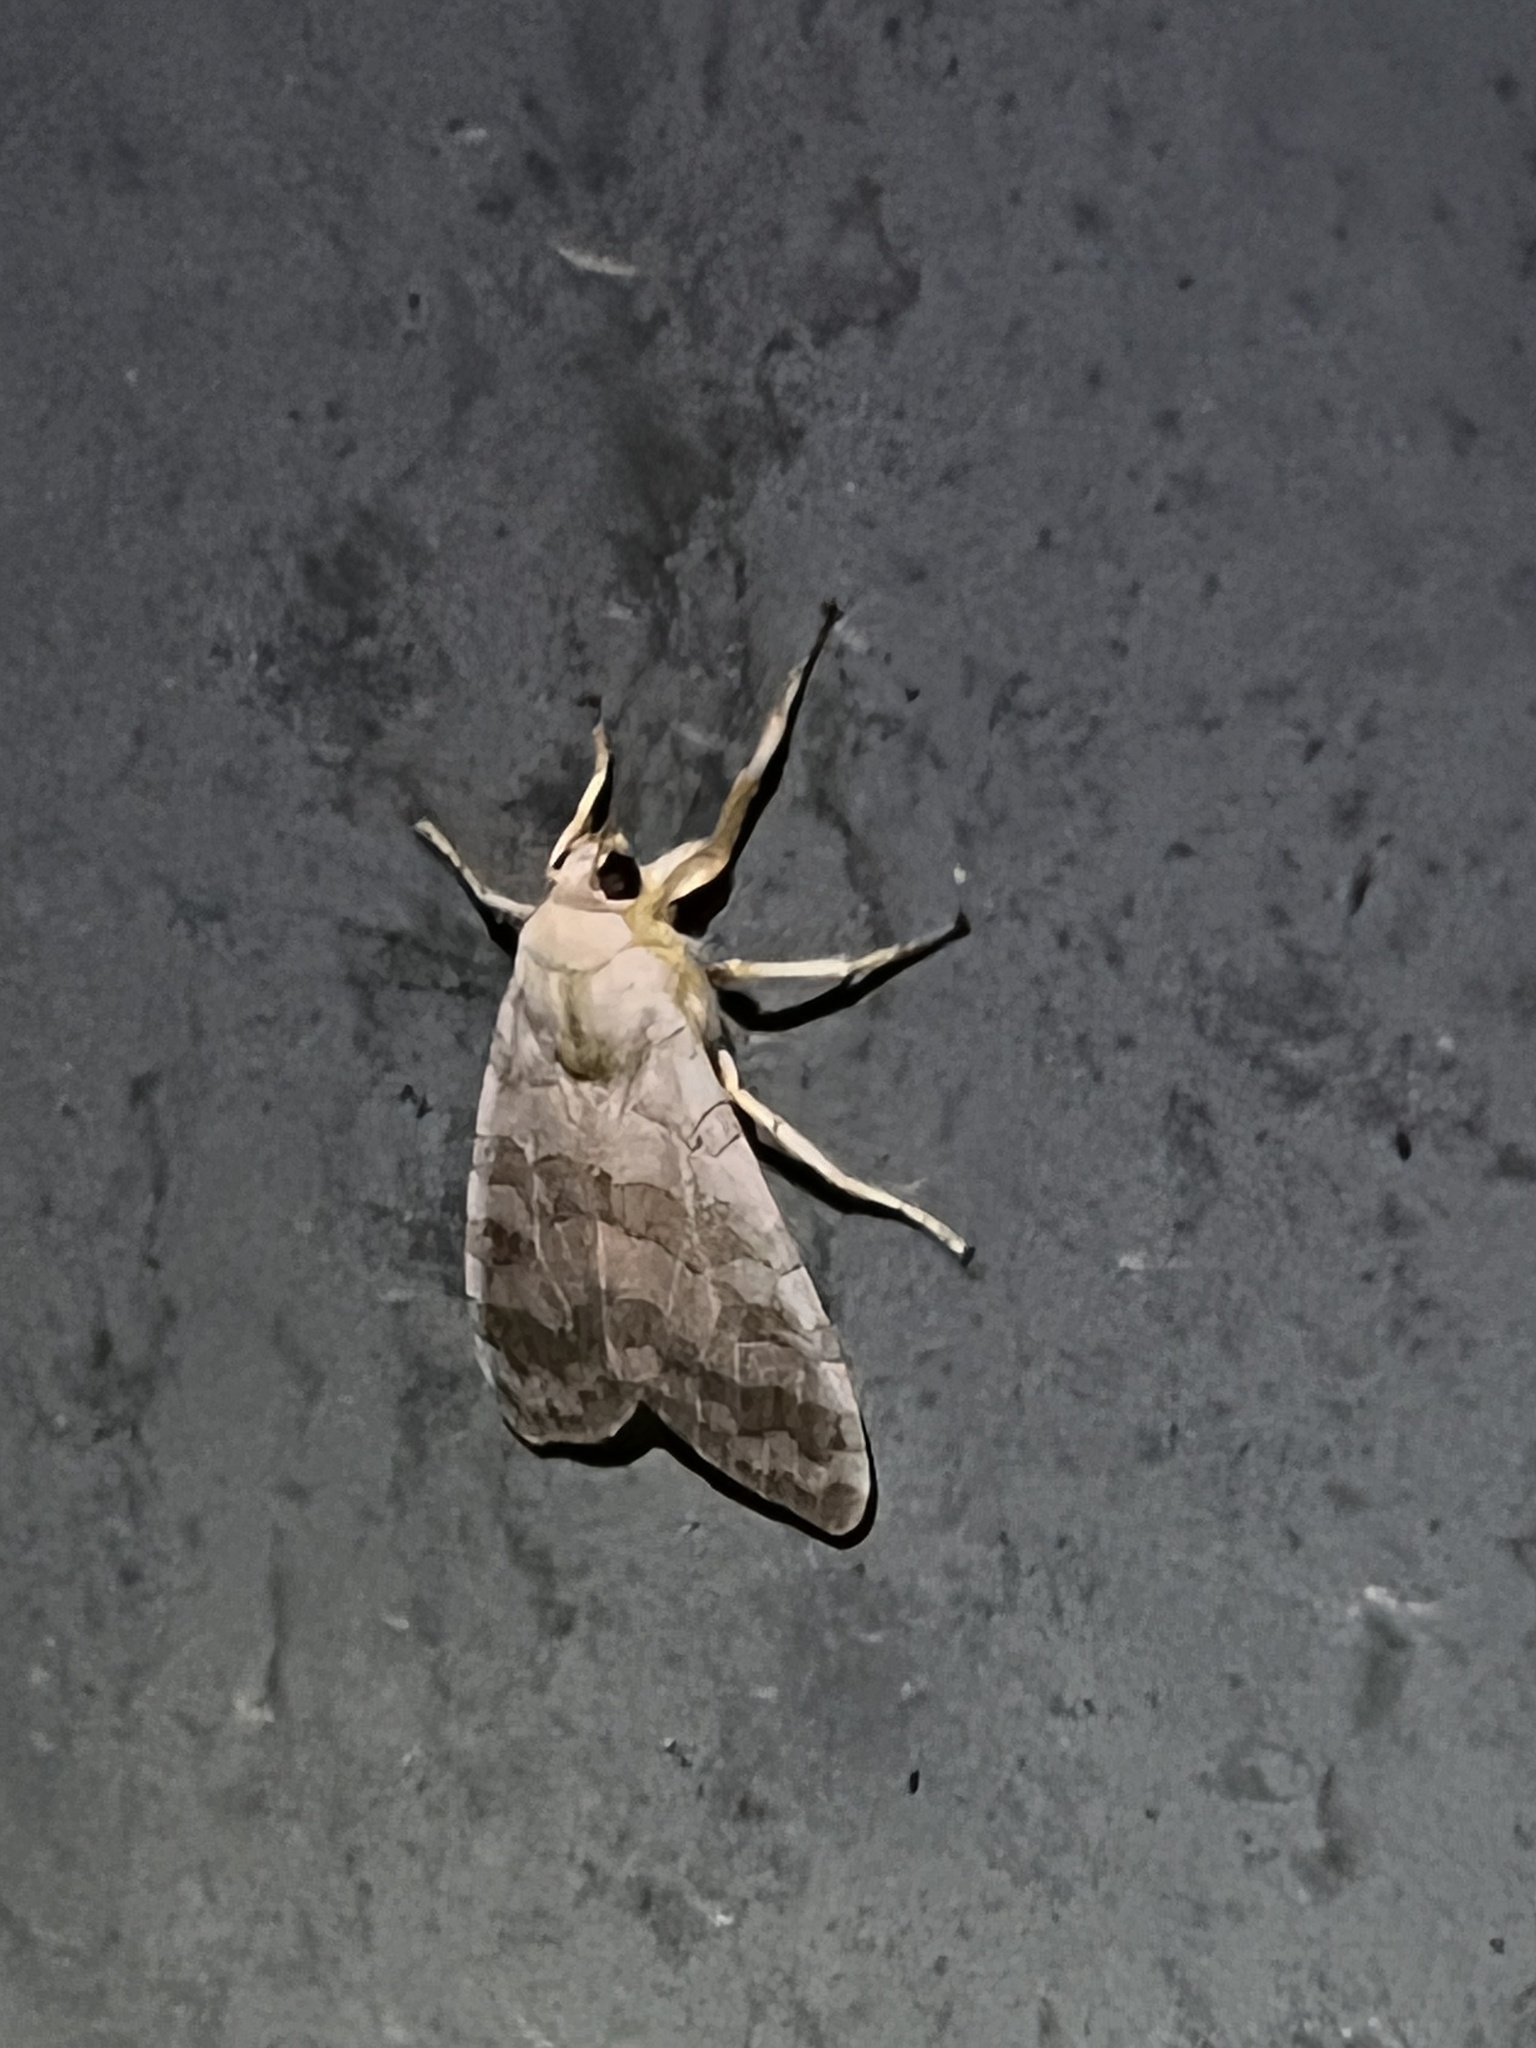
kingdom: Animalia
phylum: Arthropoda
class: Insecta
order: Lepidoptera
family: Erebidae
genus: Halysidota
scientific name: Halysidota
